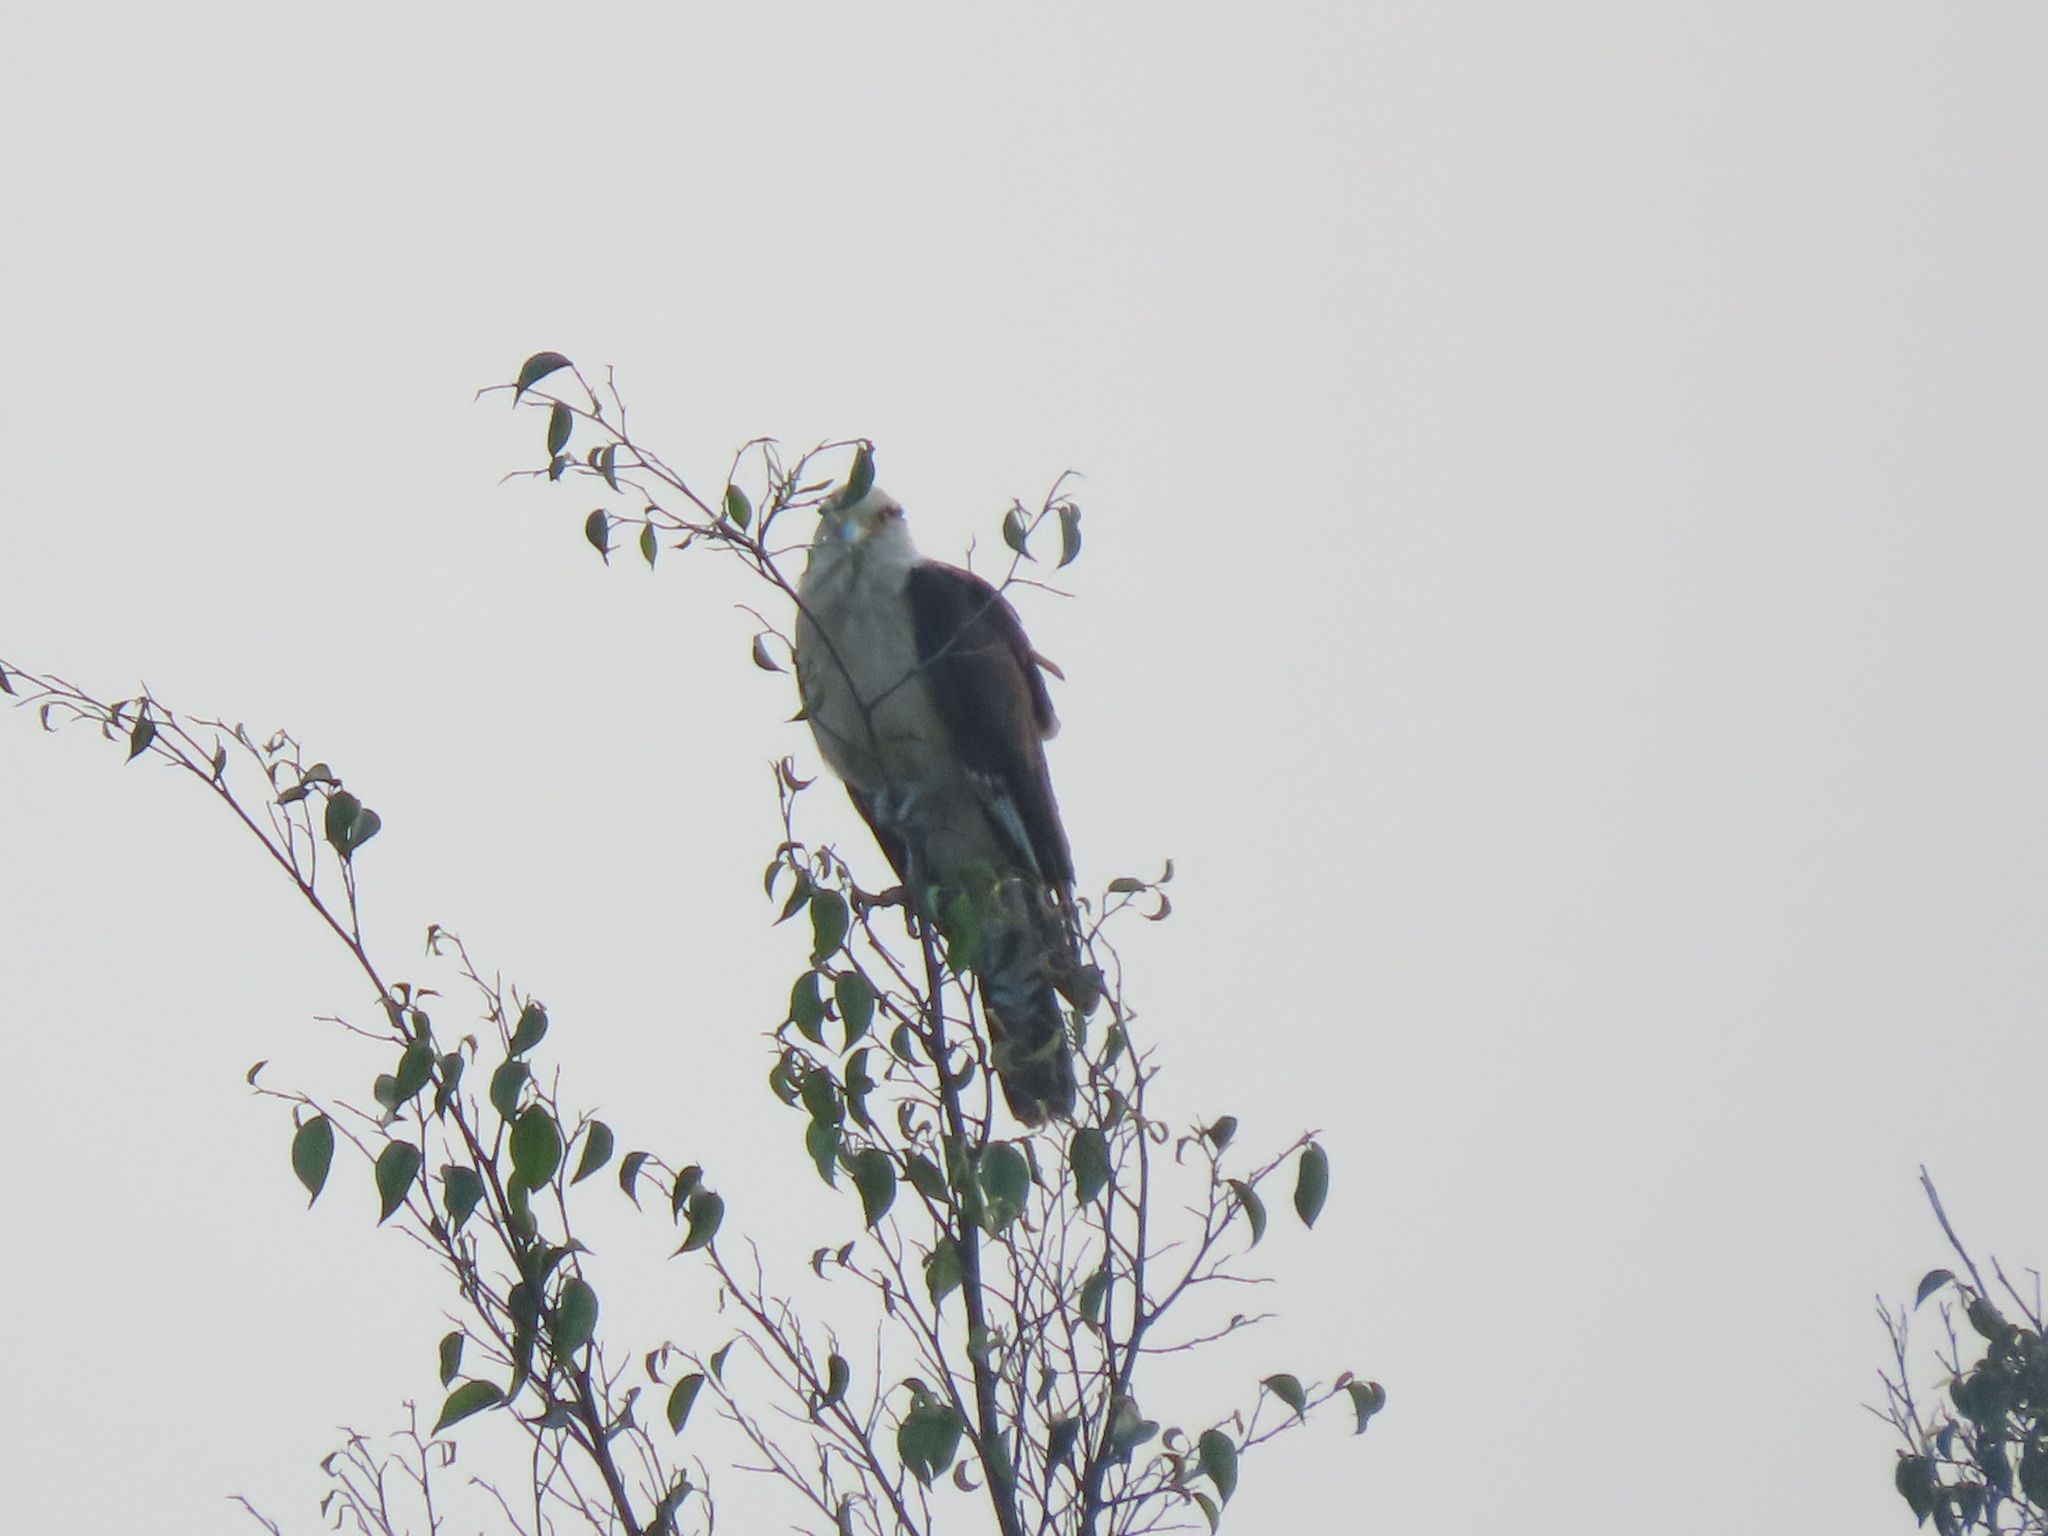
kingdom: Animalia
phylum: Chordata
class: Aves
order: Falconiformes
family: Falconidae
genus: Daptrius
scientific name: Daptrius
